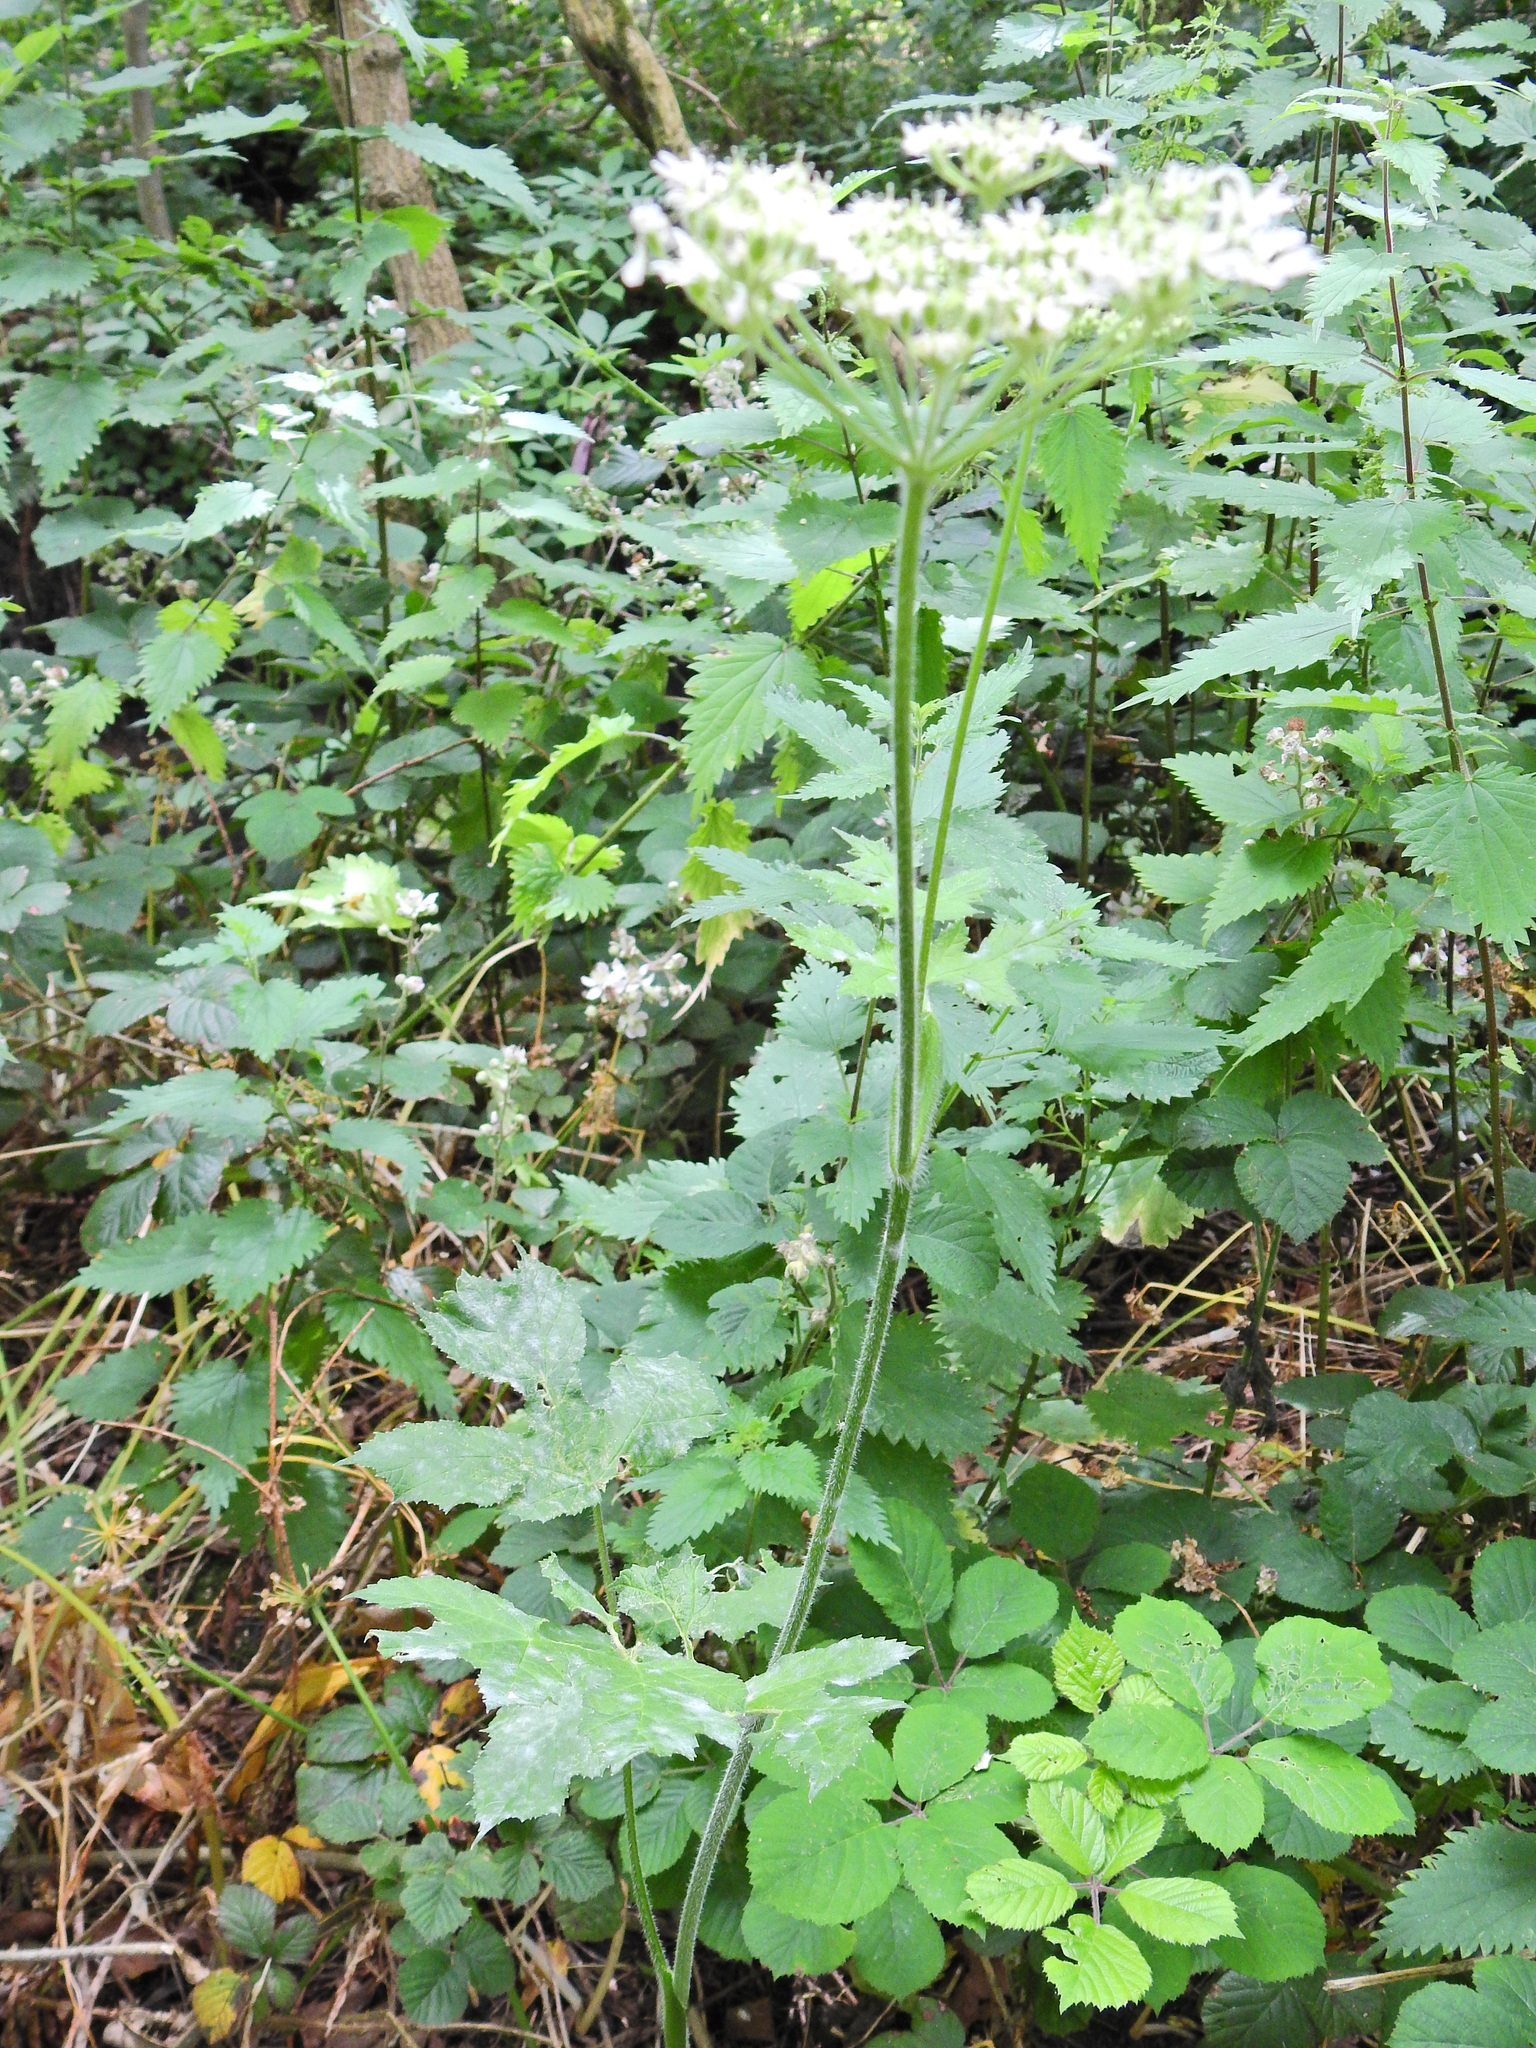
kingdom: Plantae
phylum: Tracheophyta
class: Magnoliopsida
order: Apiales
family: Apiaceae
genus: Heracleum
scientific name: Heracleum sphondylium
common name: Hogweed
